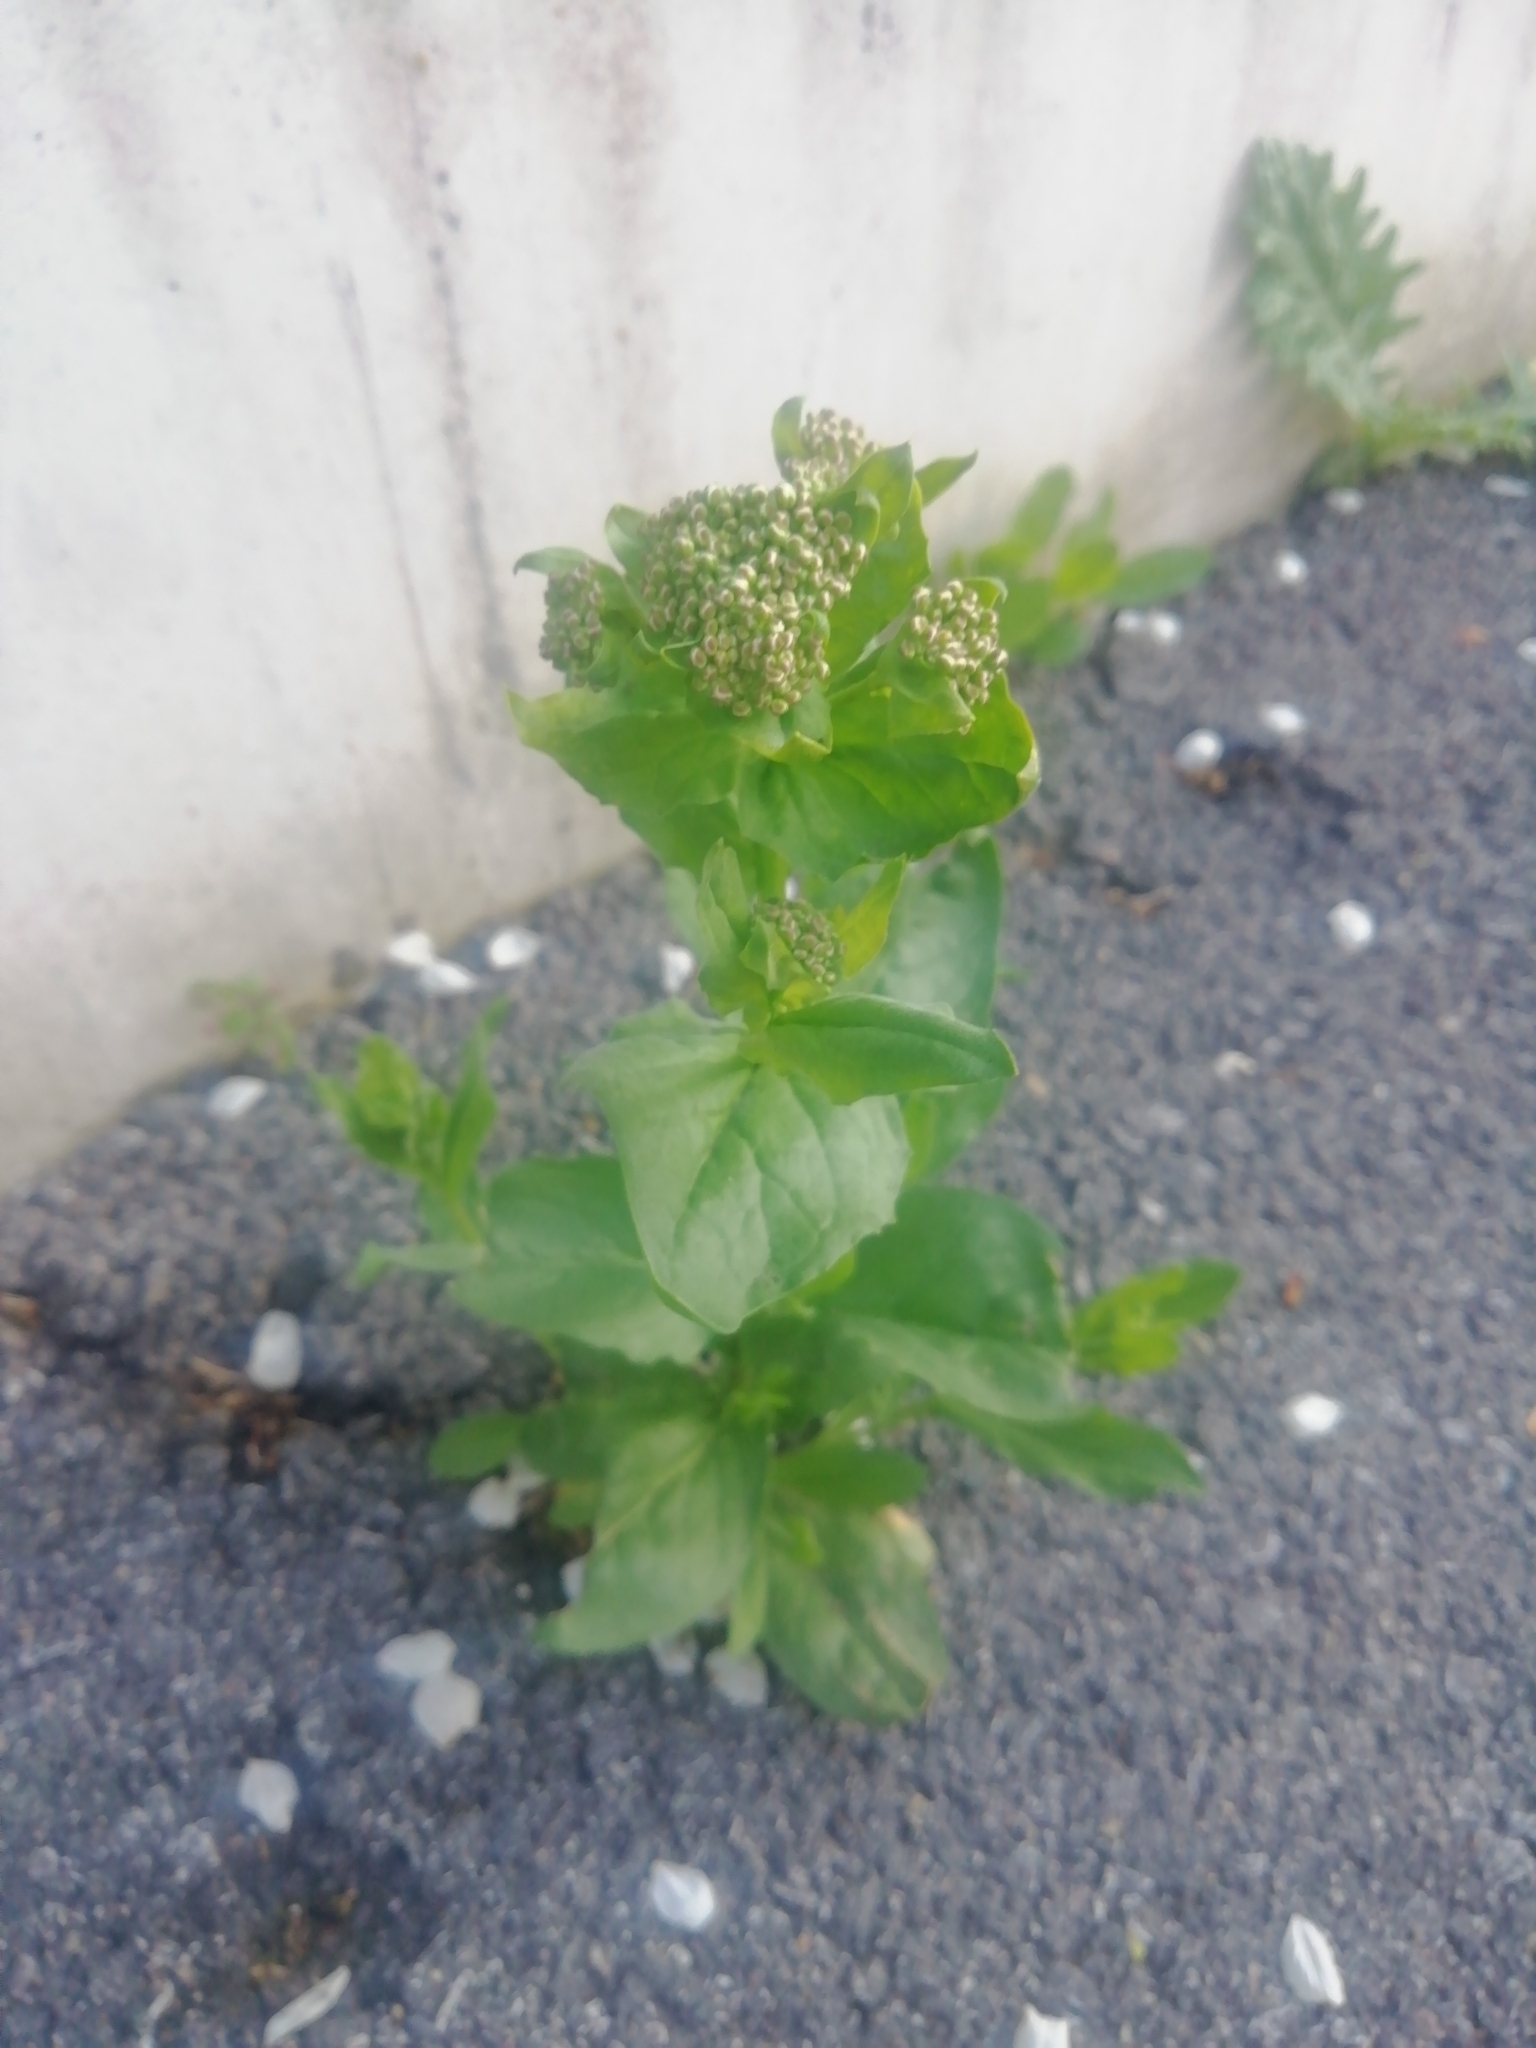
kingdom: Plantae
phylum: Tracheophyta
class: Magnoliopsida
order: Brassicales
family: Brassicaceae
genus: Lepidium
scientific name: Lepidium draba
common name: Hoary cress
